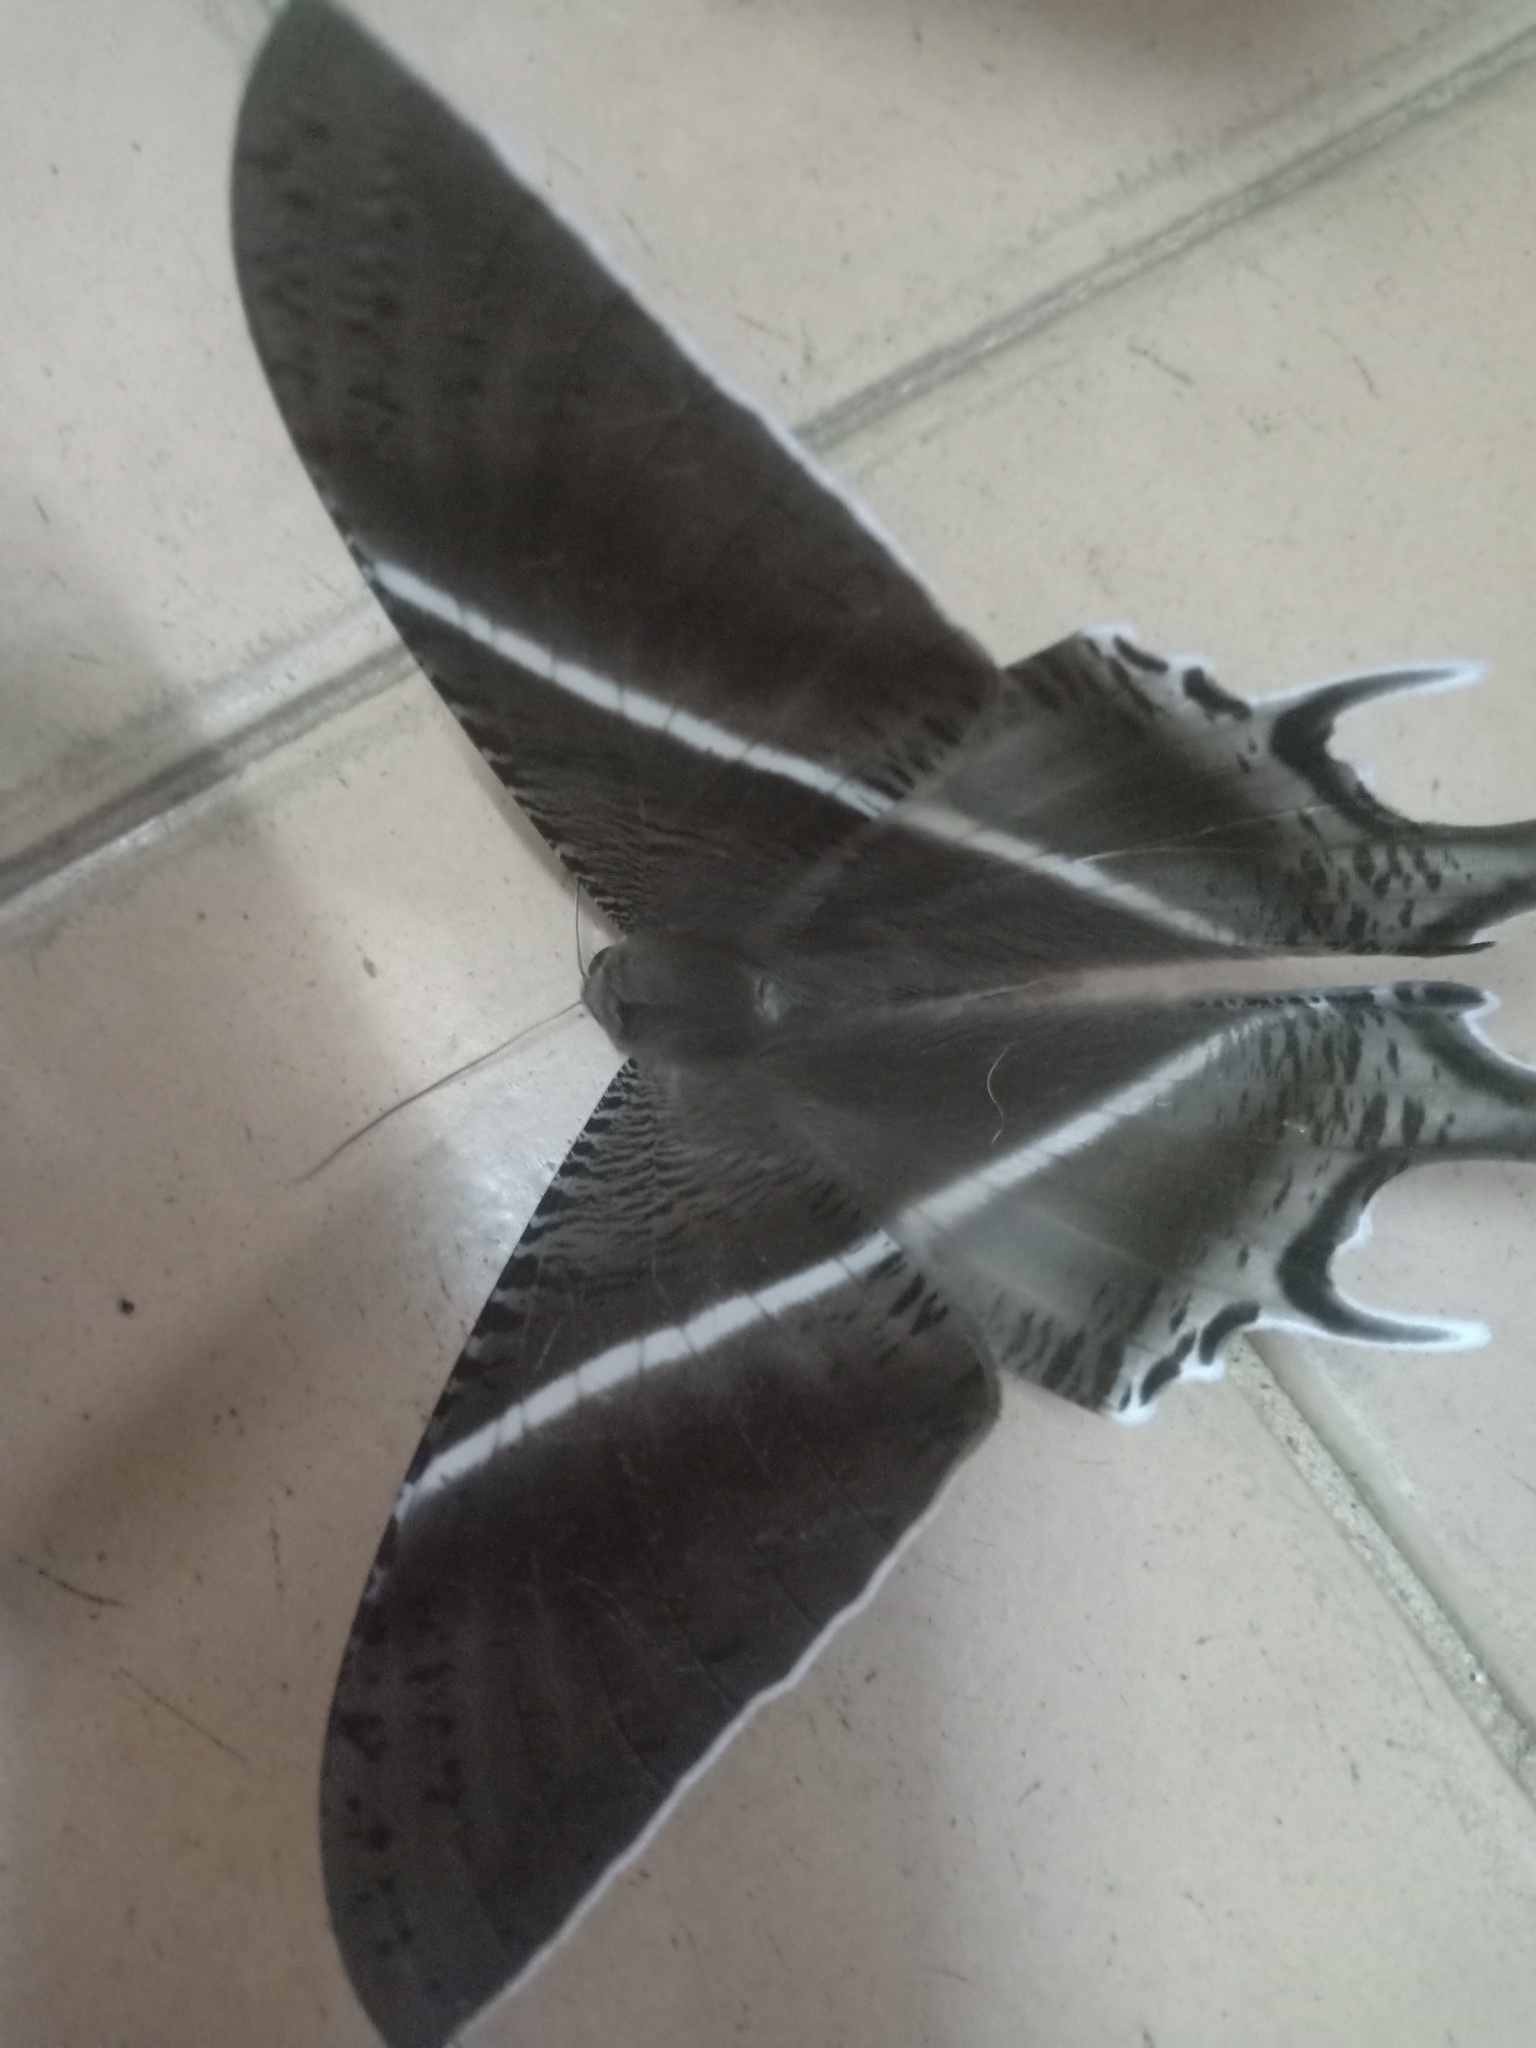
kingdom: Animalia
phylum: Arthropoda
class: Insecta
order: Lepidoptera
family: Uraniidae
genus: Lyssa
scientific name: Lyssa zampa
